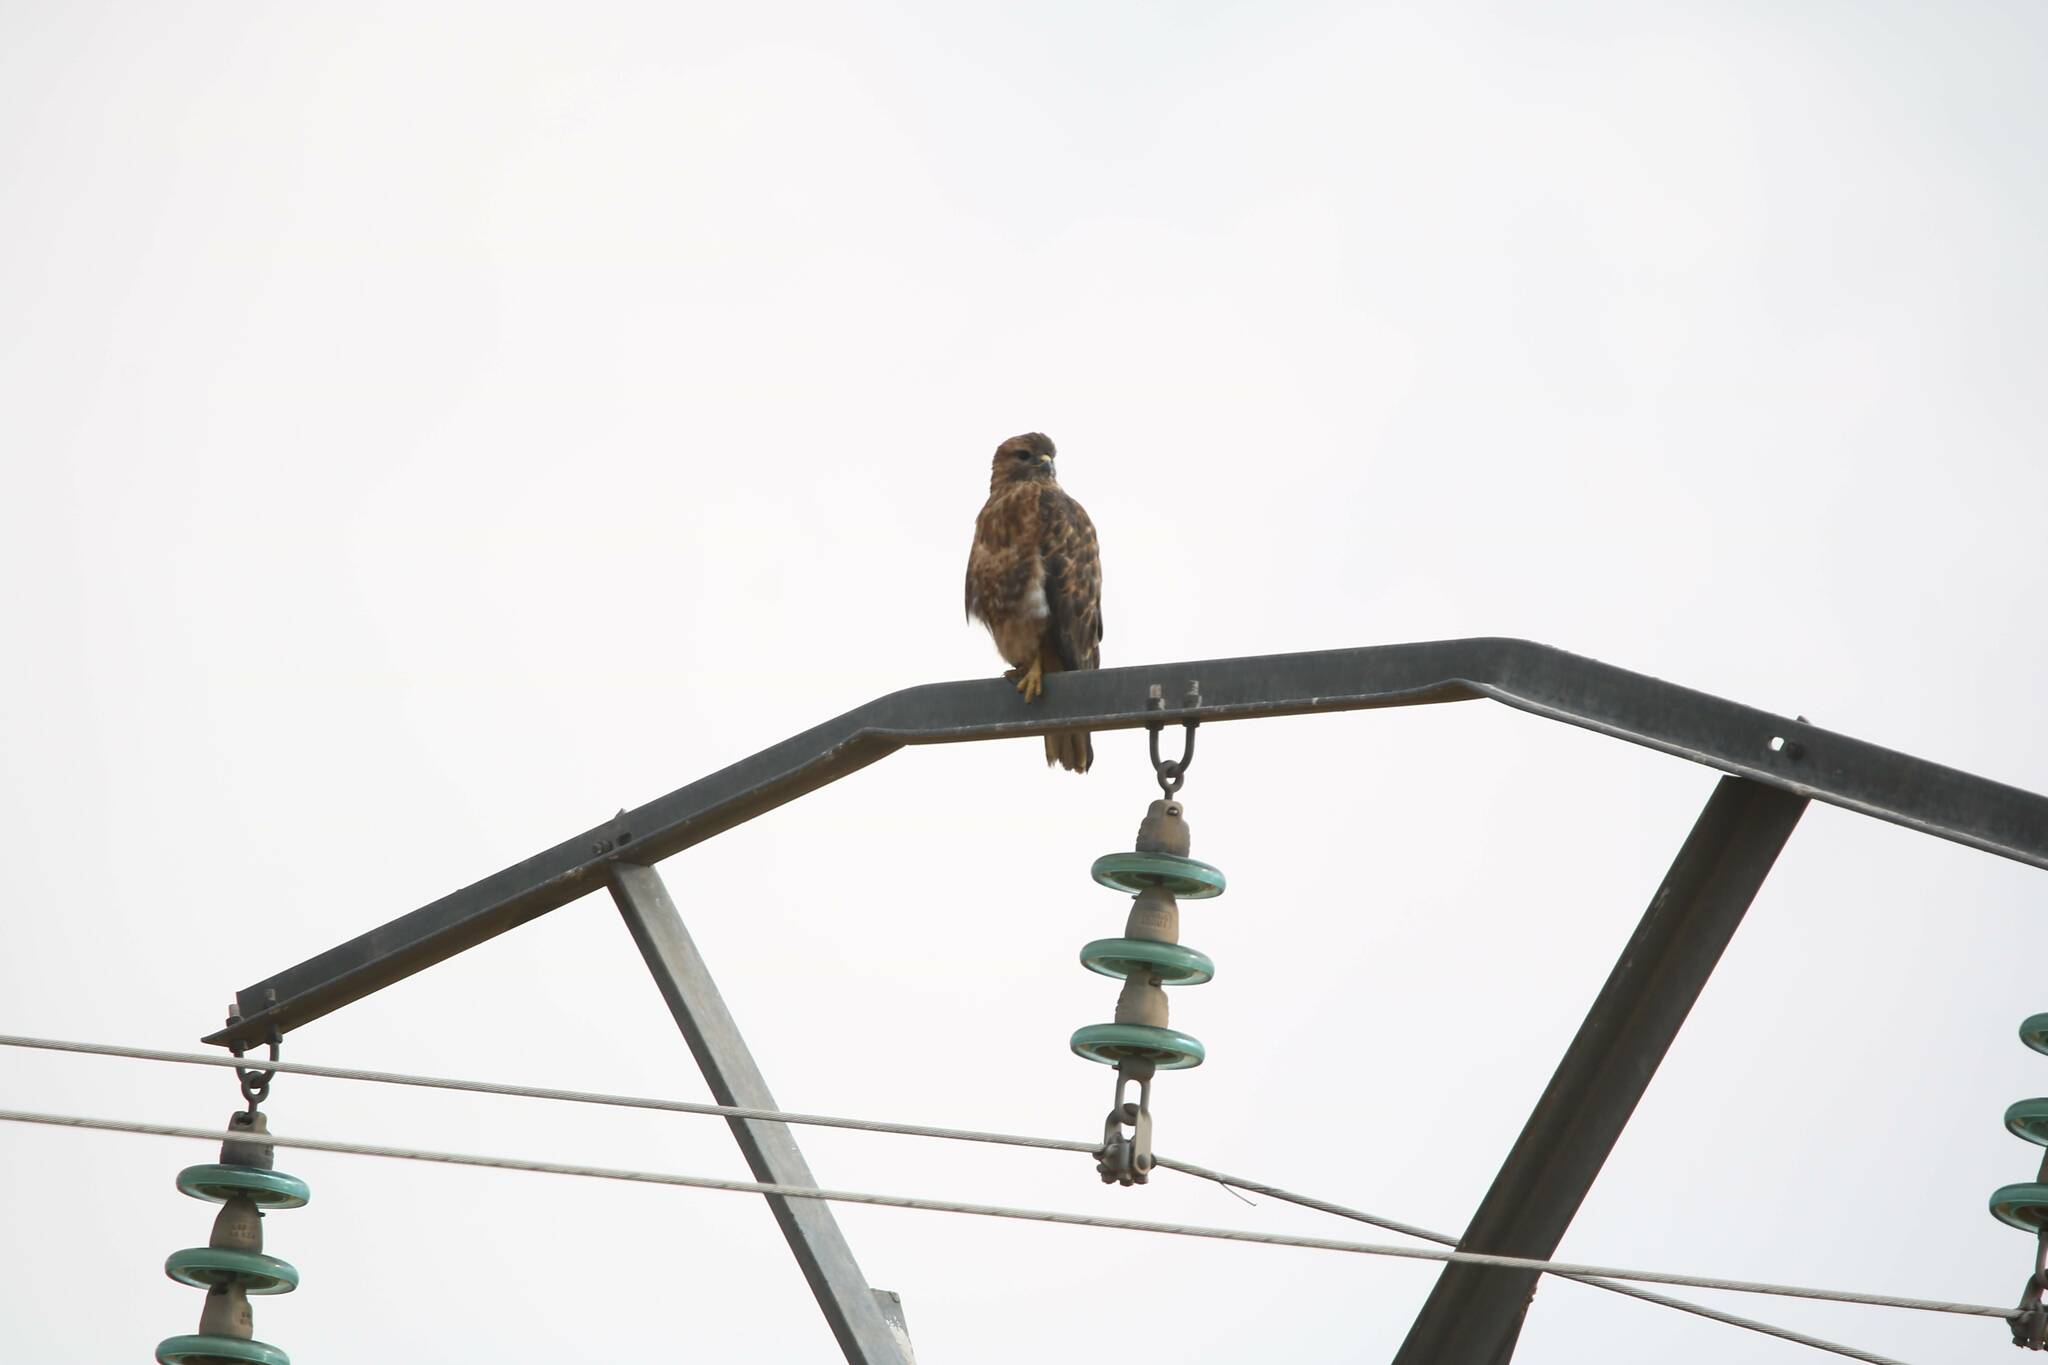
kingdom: Animalia
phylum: Chordata
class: Aves
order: Accipitriformes
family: Accipitridae
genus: Buteo
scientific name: Buteo buteo
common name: Common buzzard
